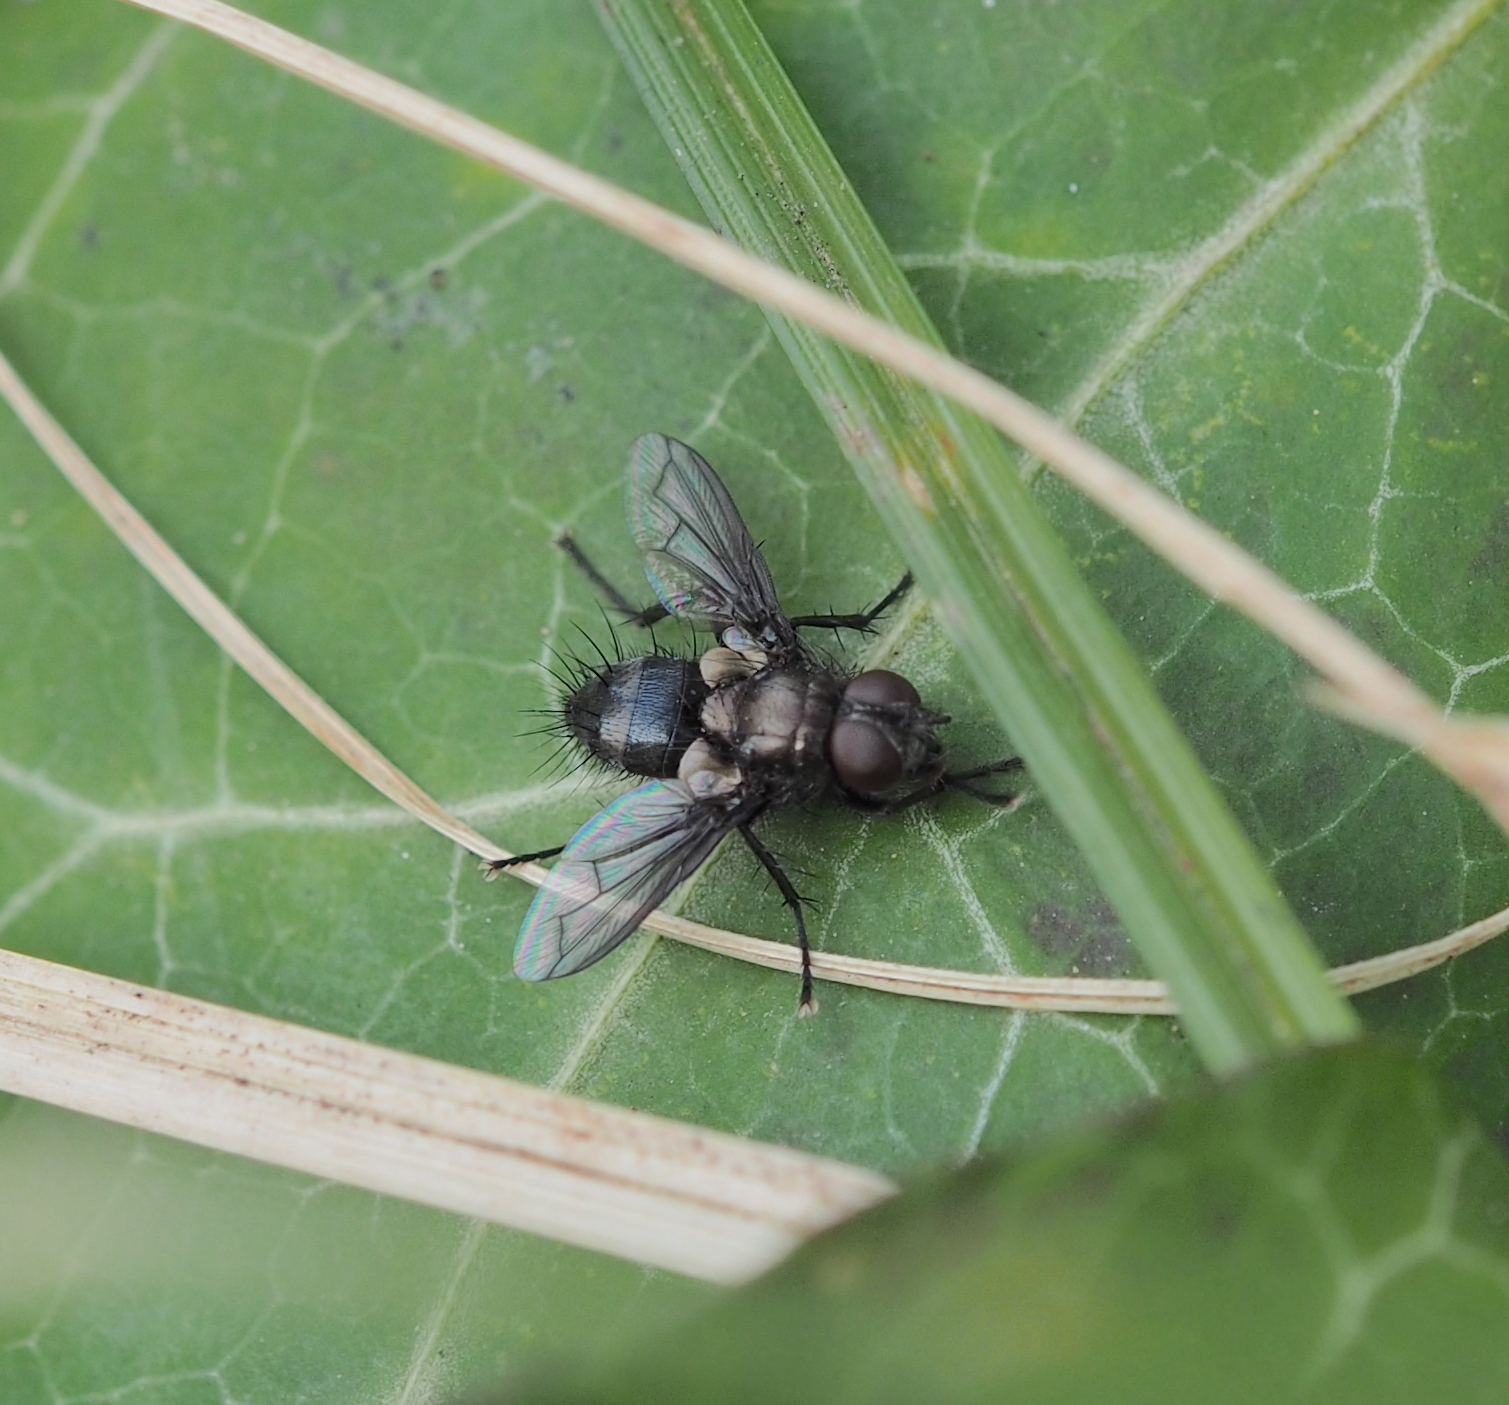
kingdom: Animalia
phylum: Arthropoda
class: Insecta
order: Diptera
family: Tachinidae
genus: Kirbya
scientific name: Kirbya moerens
